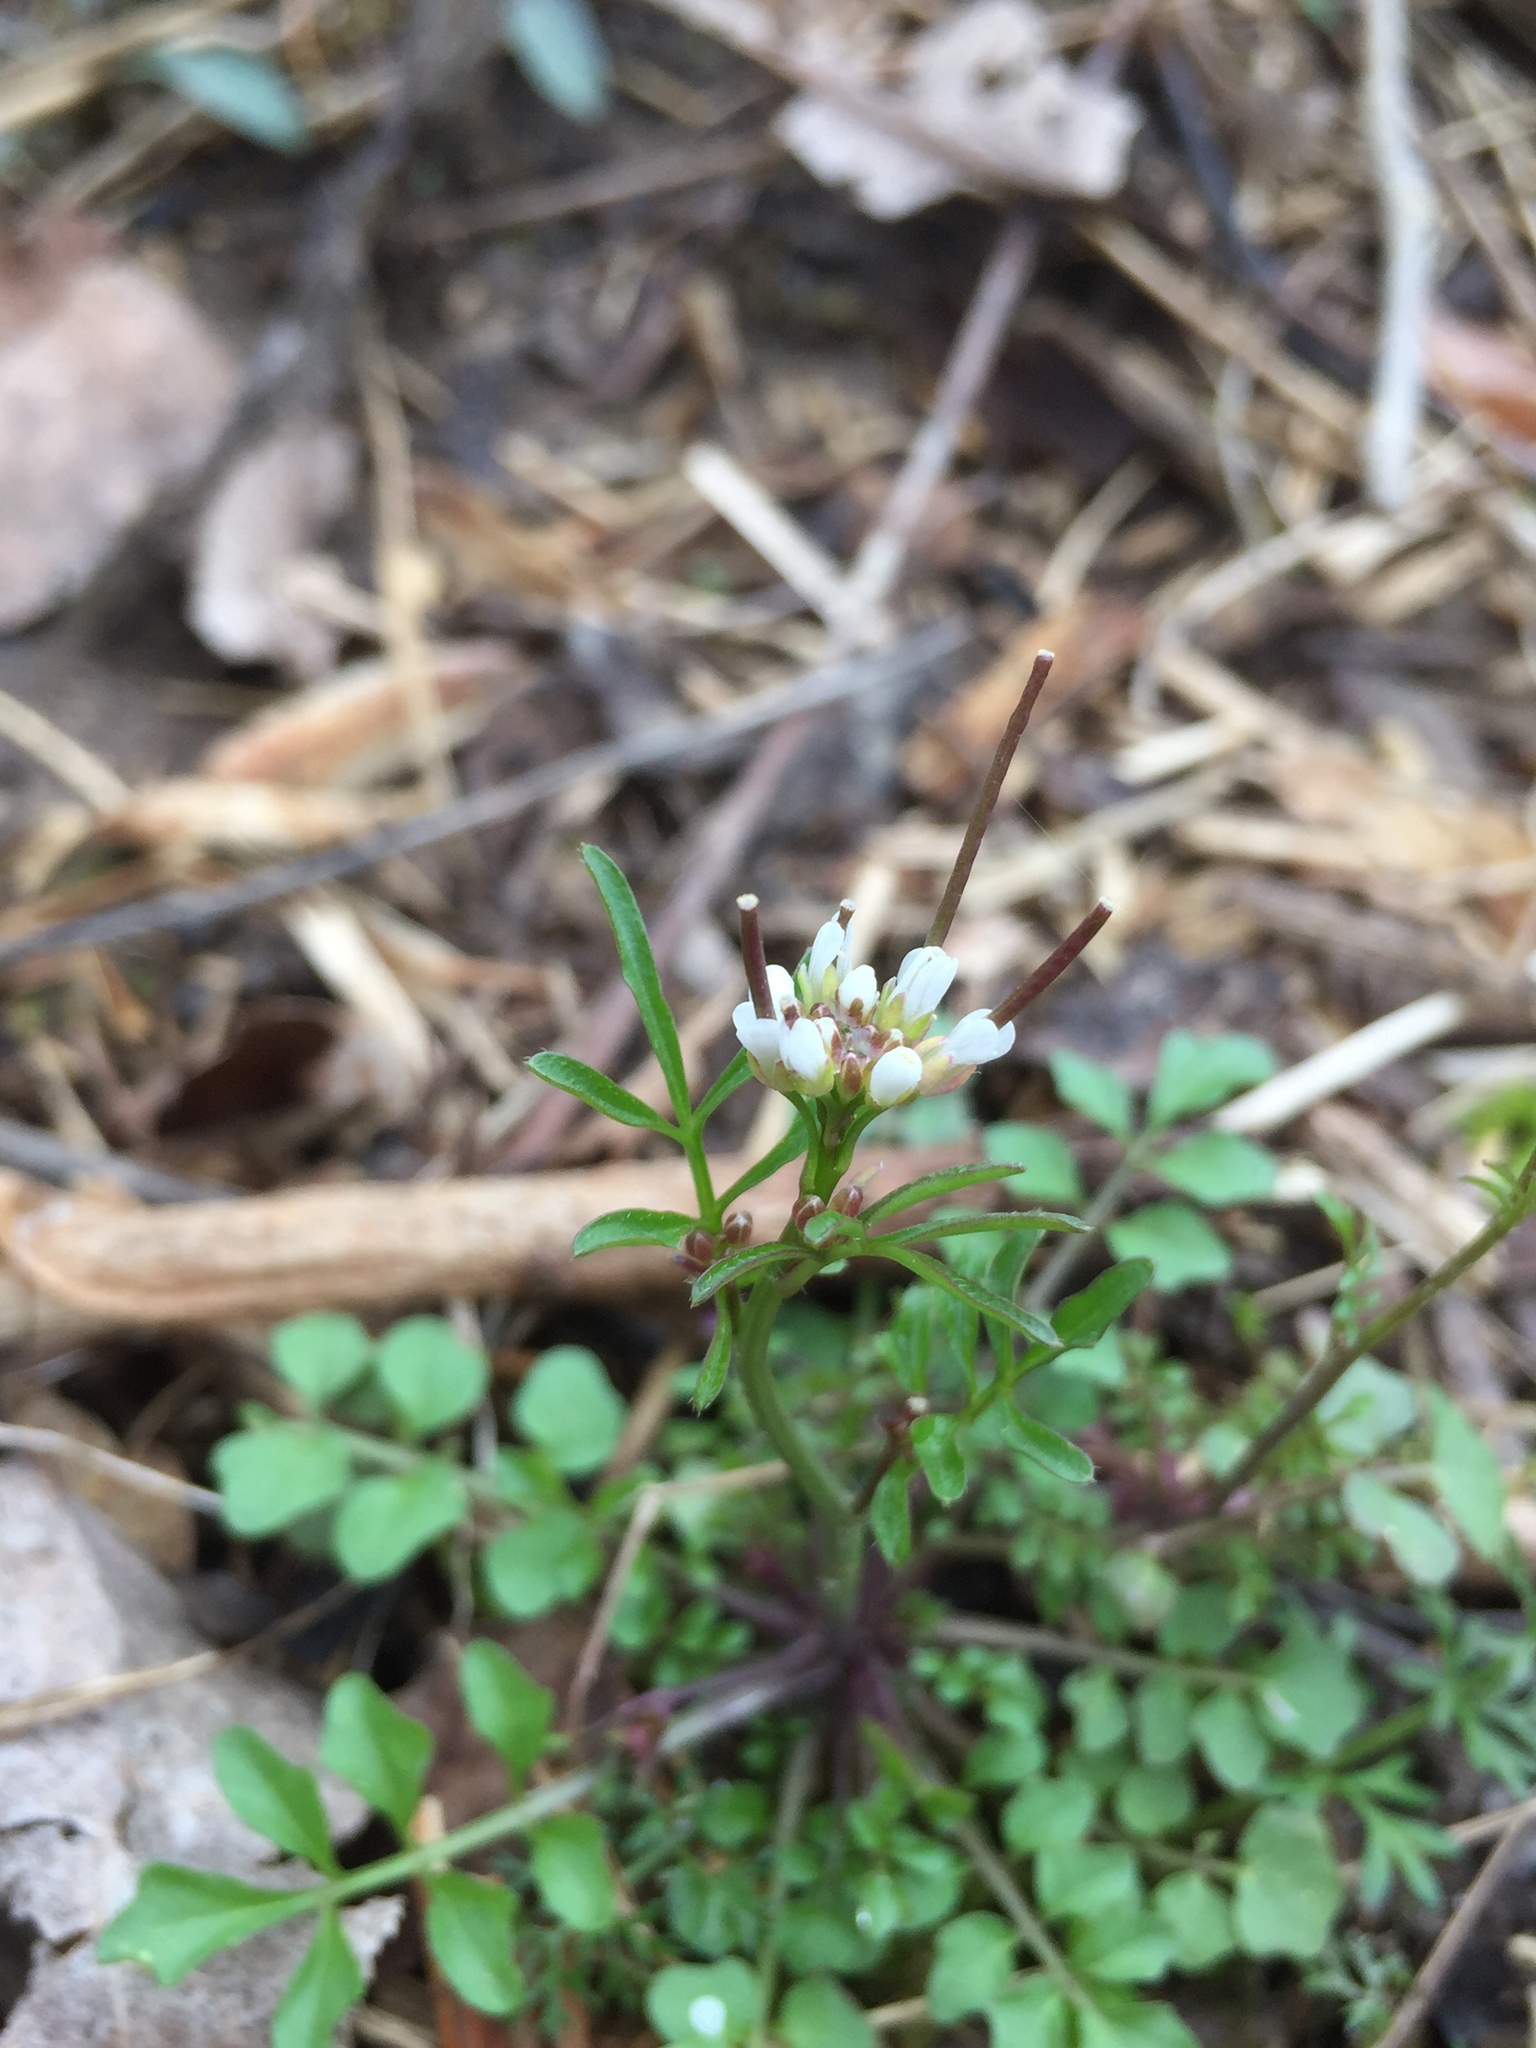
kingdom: Plantae
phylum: Tracheophyta
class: Magnoliopsida
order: Brassicales
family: Brassicaceae
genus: Cardamine
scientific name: Cardamine hirsuta
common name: Hairy bittercress
